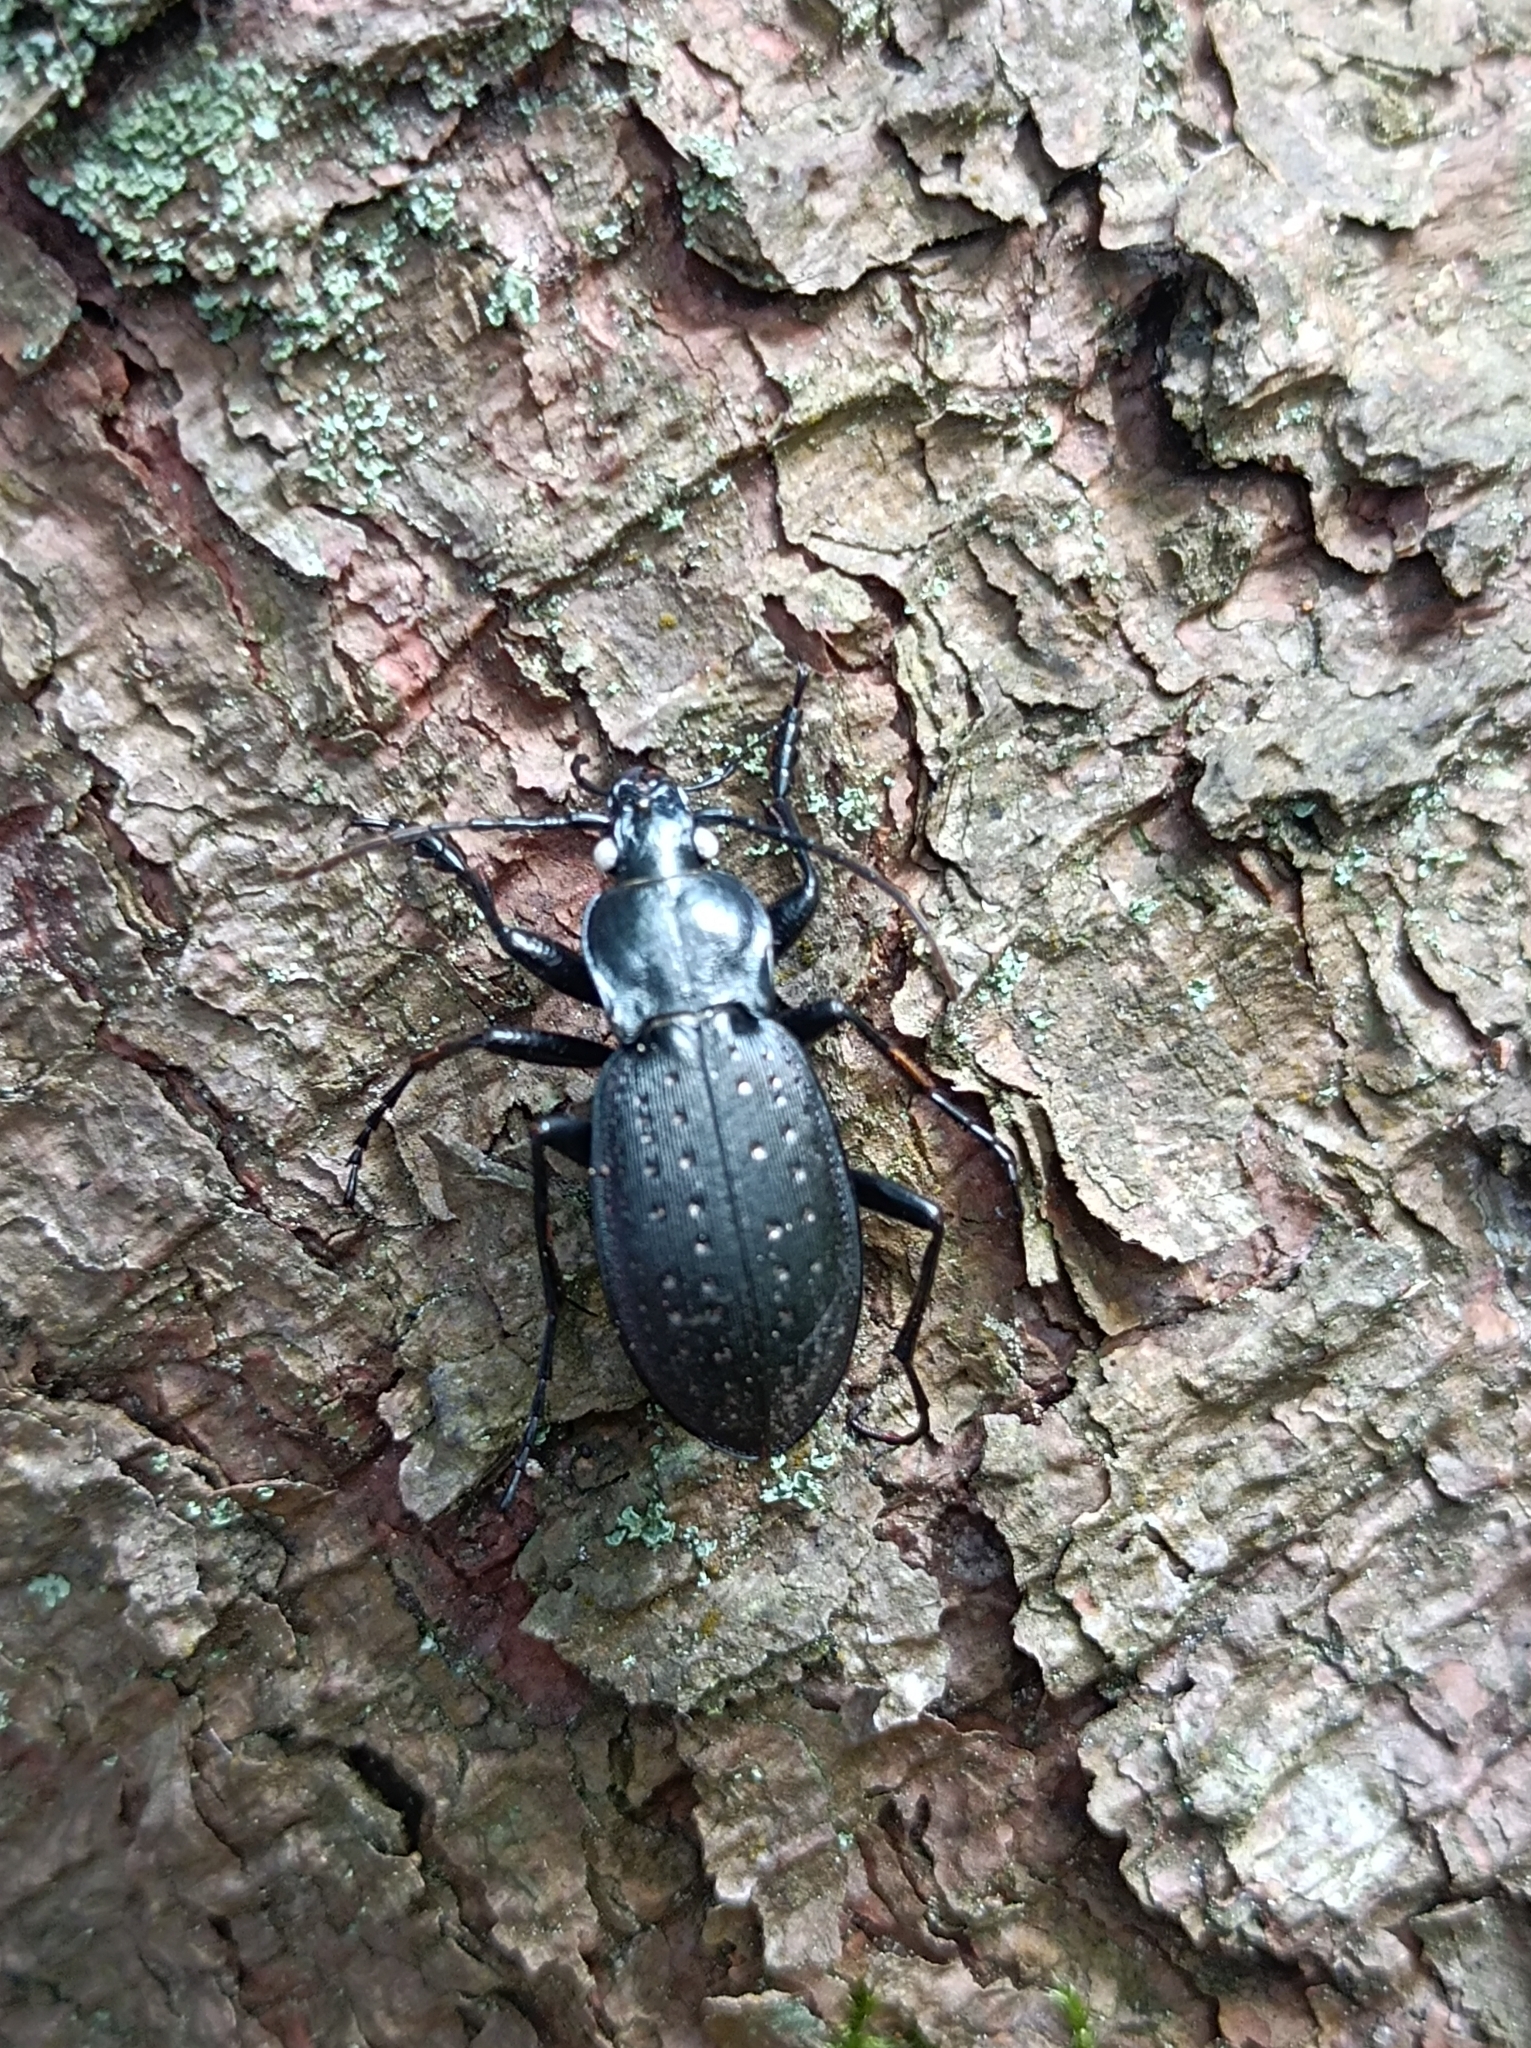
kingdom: Animalia
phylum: Arthropoda
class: Insecta
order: Coleoptera
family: Carabidae
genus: Carabus
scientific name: Carabus hortensis
